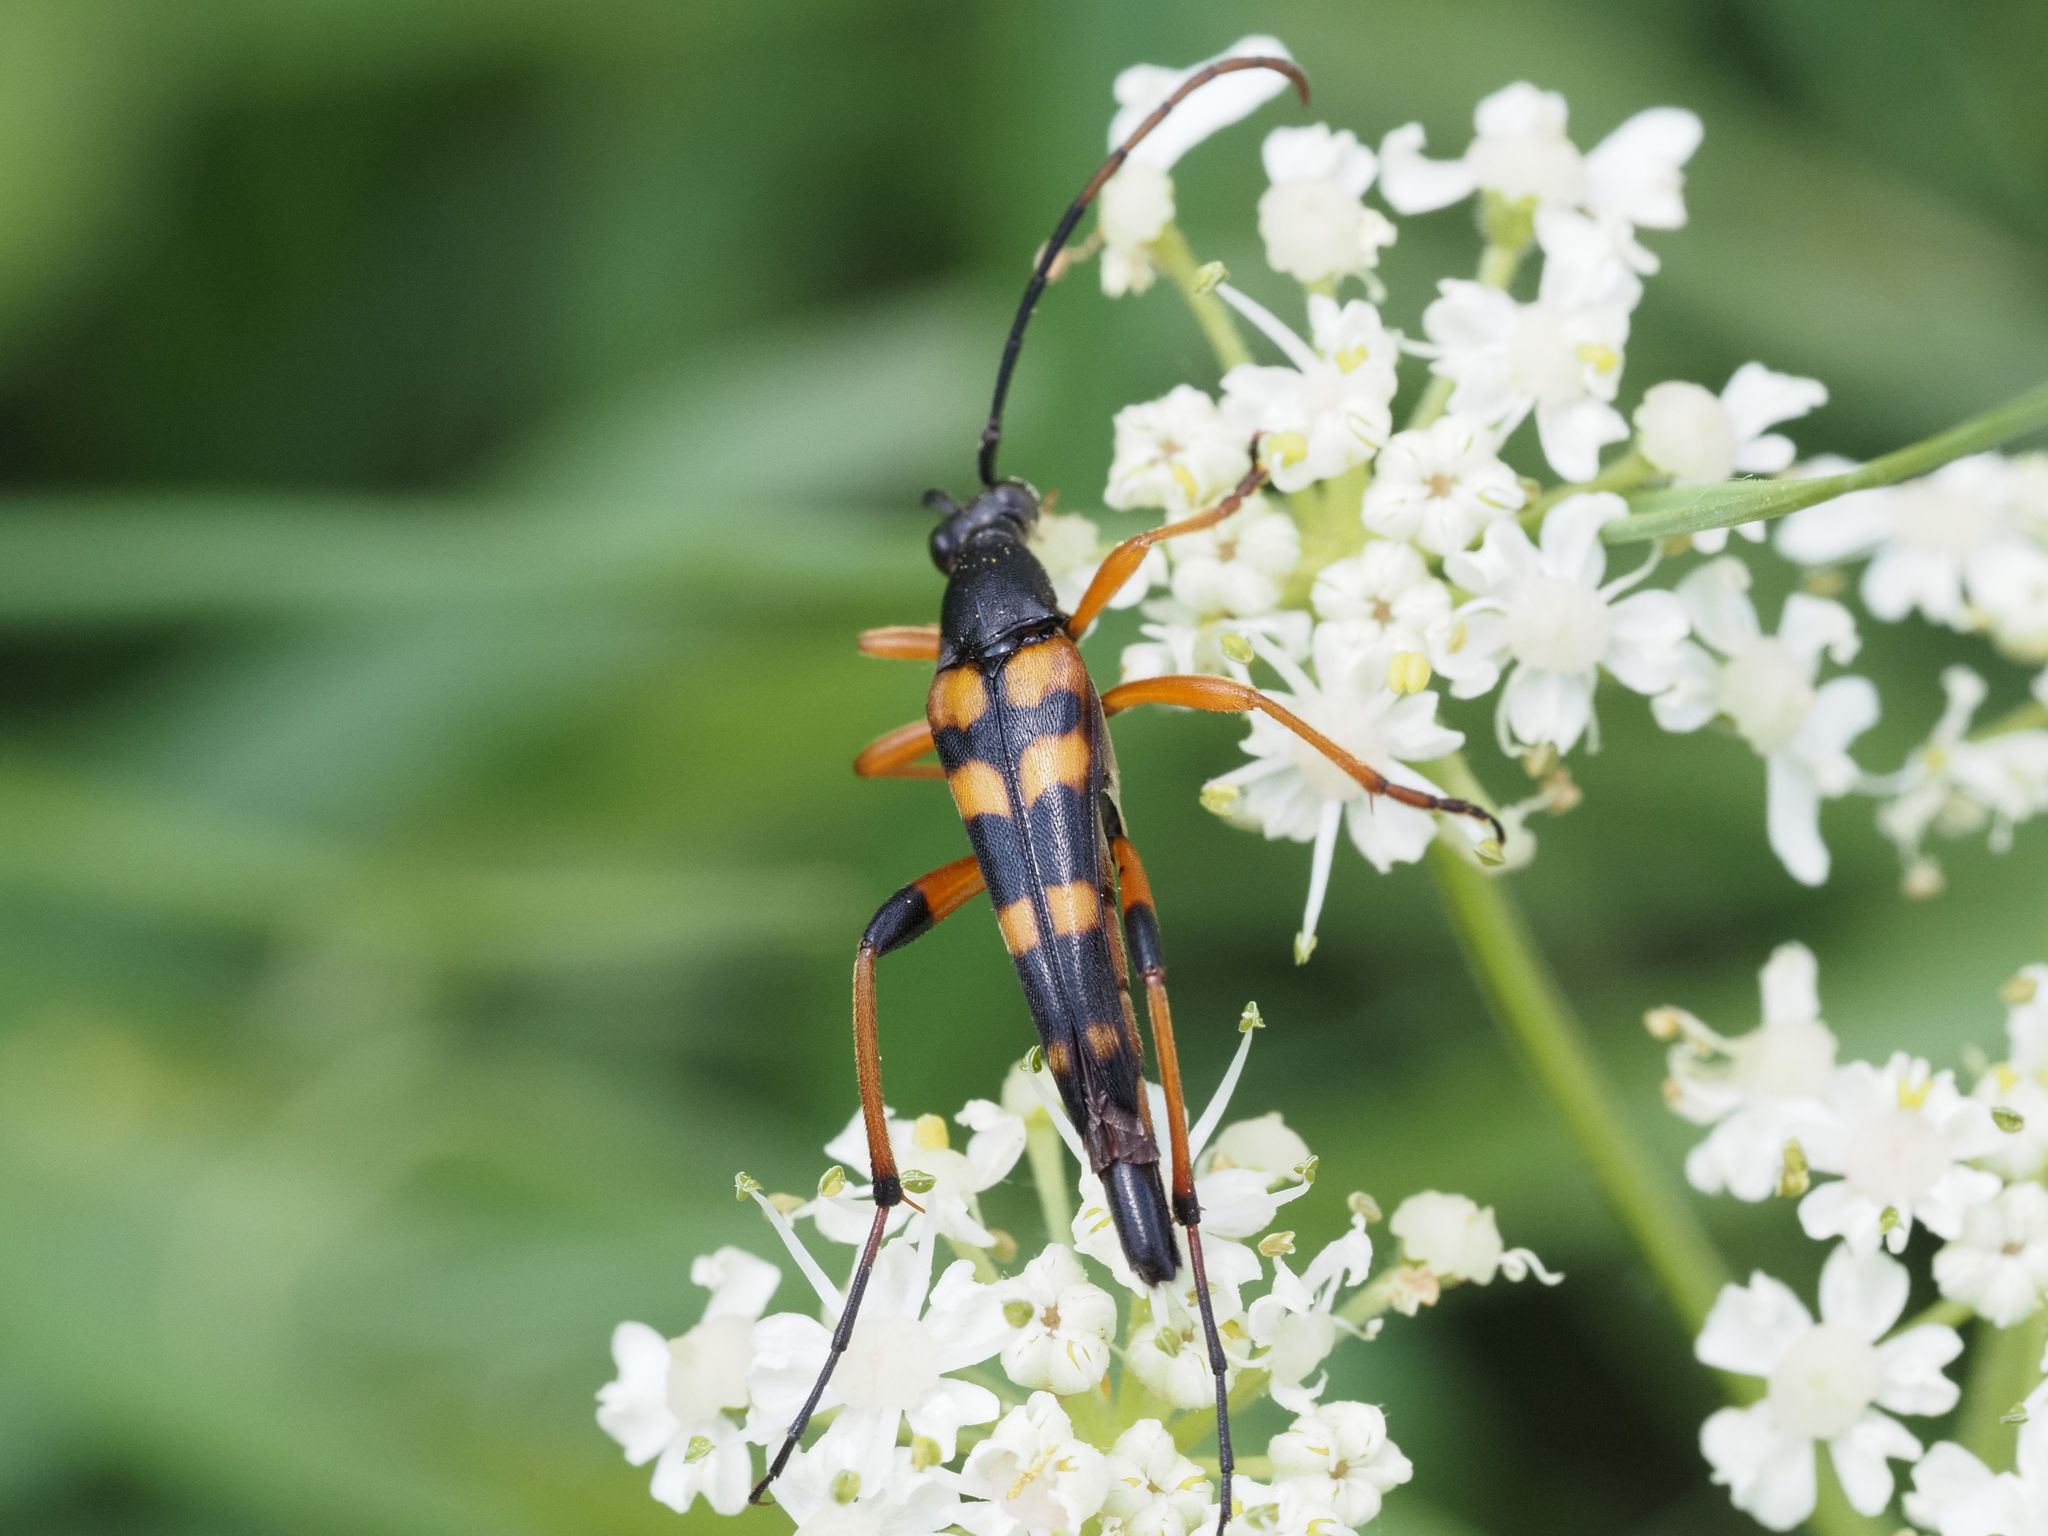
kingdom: Animalia
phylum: Arthropoda
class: Insecta
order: Coleoptera
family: Cerambycidae
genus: Strangalia
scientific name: Strangalia attenuata
